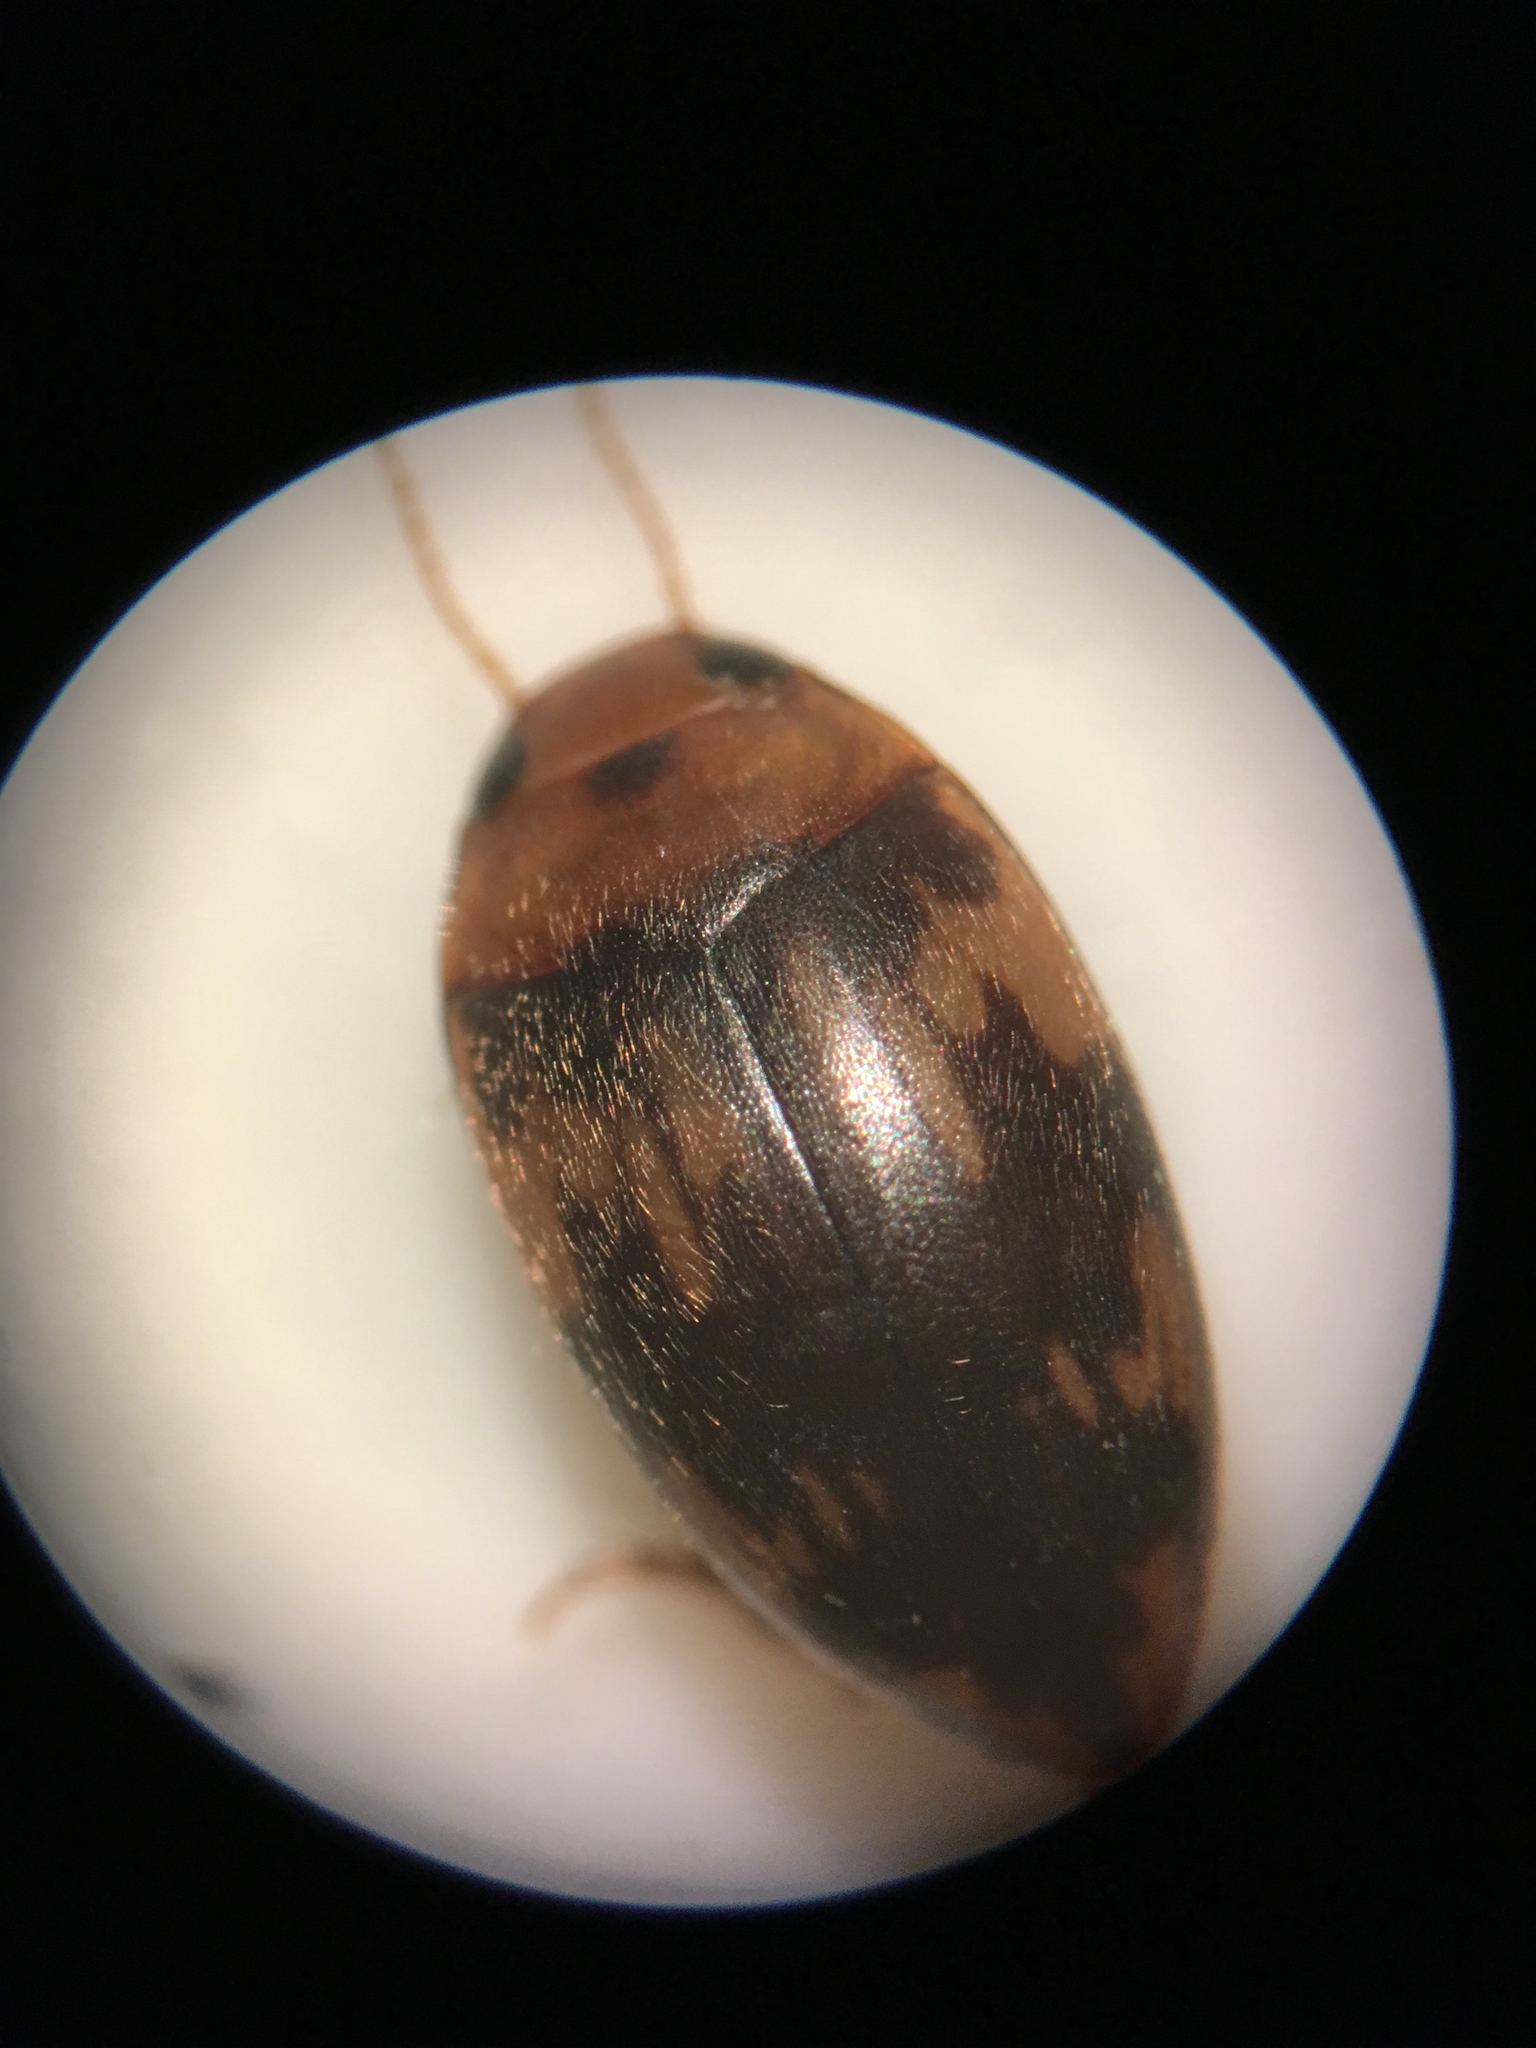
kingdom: Animalia
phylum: Arthropoda
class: Insecta
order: Coleoptera
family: Dytiscidae
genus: Neoporus
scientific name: Neoporus undulatus
